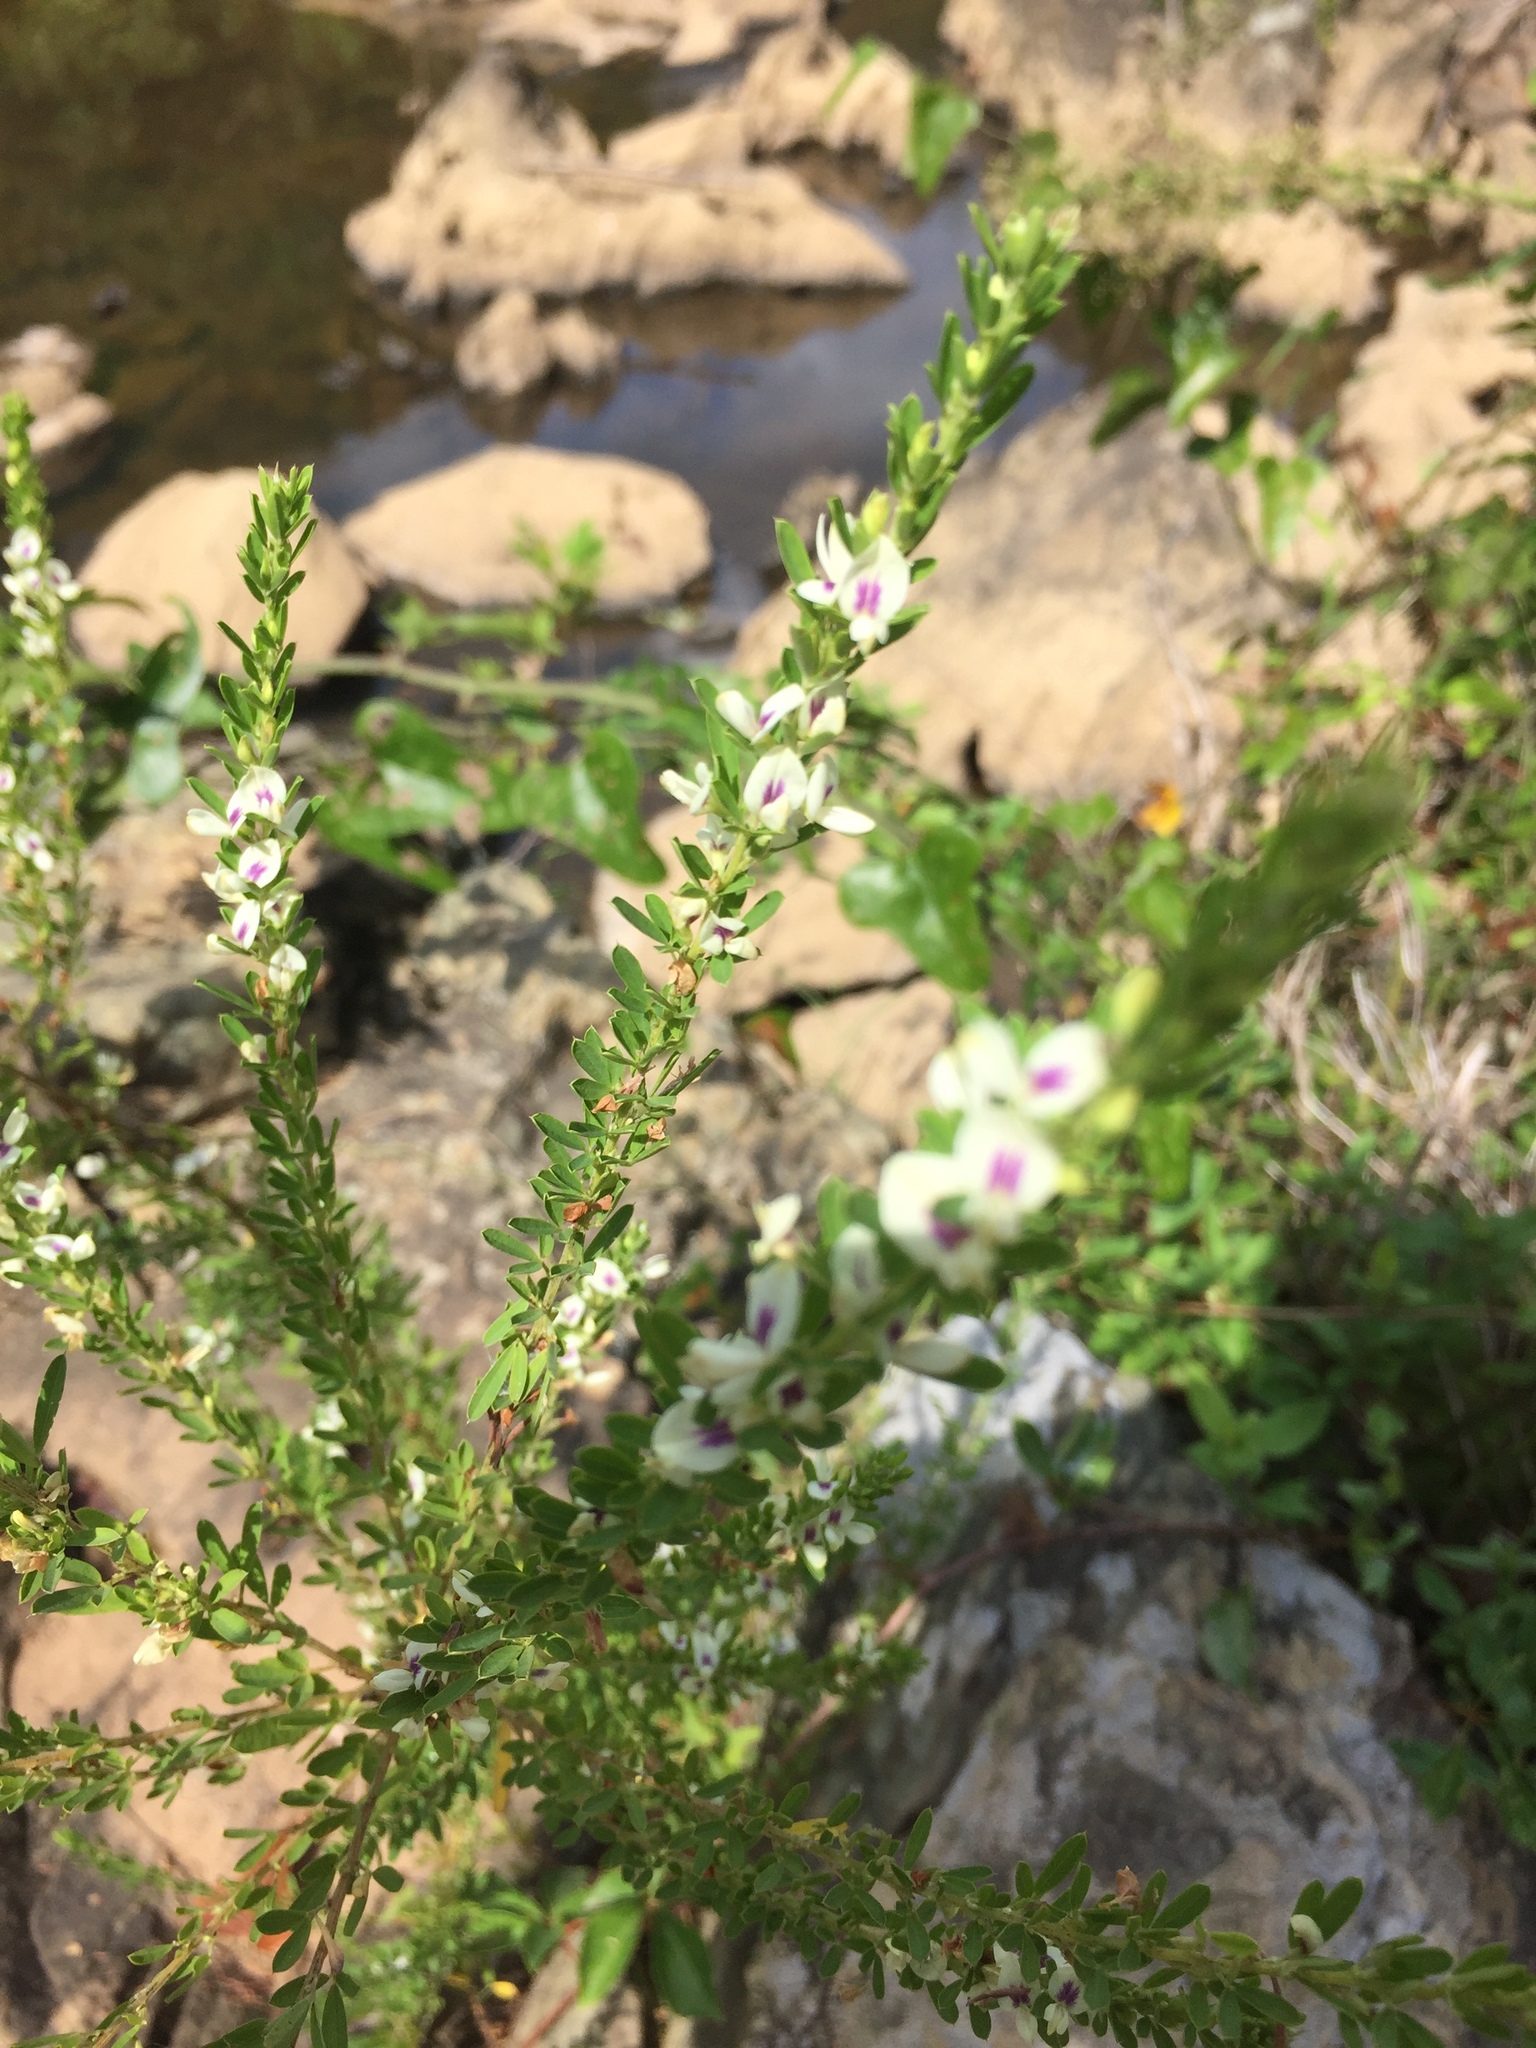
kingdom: Plantae
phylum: Tracheophyta
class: Magnoliopsida
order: Fabales
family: Fabaceae
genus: Lespedeza
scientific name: Lespedeza cuneata
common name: Chinese bush-clover
